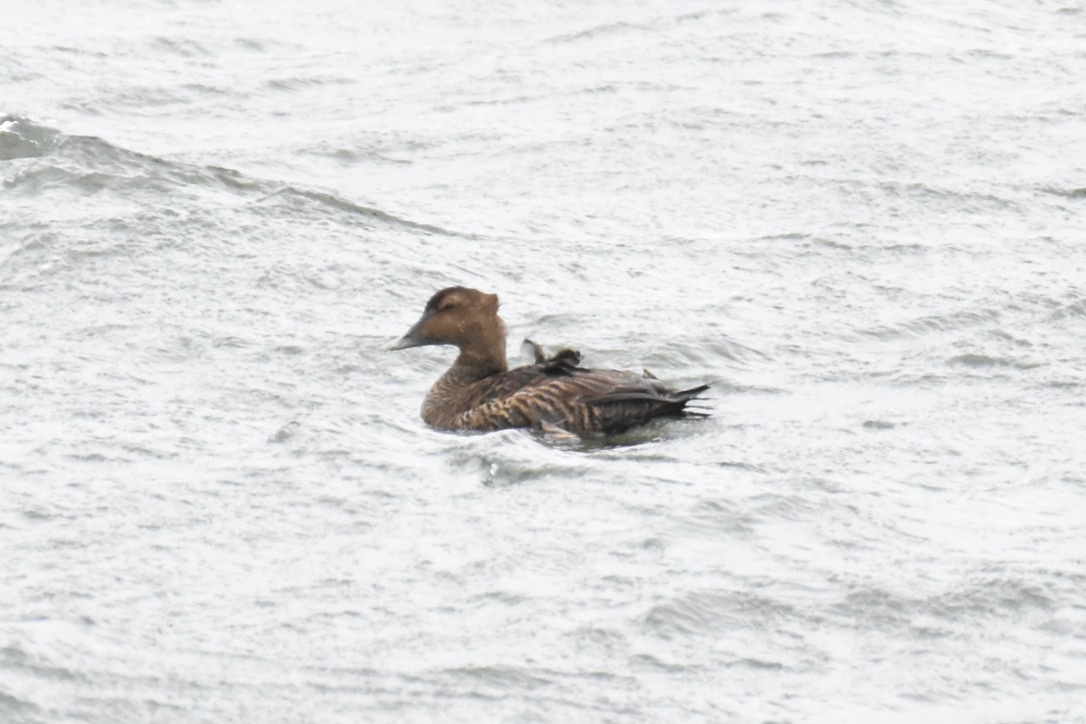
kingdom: Animalia
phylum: Chordata
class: Aves
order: Anseriformes
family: Anatidae
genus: Somateria
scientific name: Somateria mollissima
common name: Common eider
